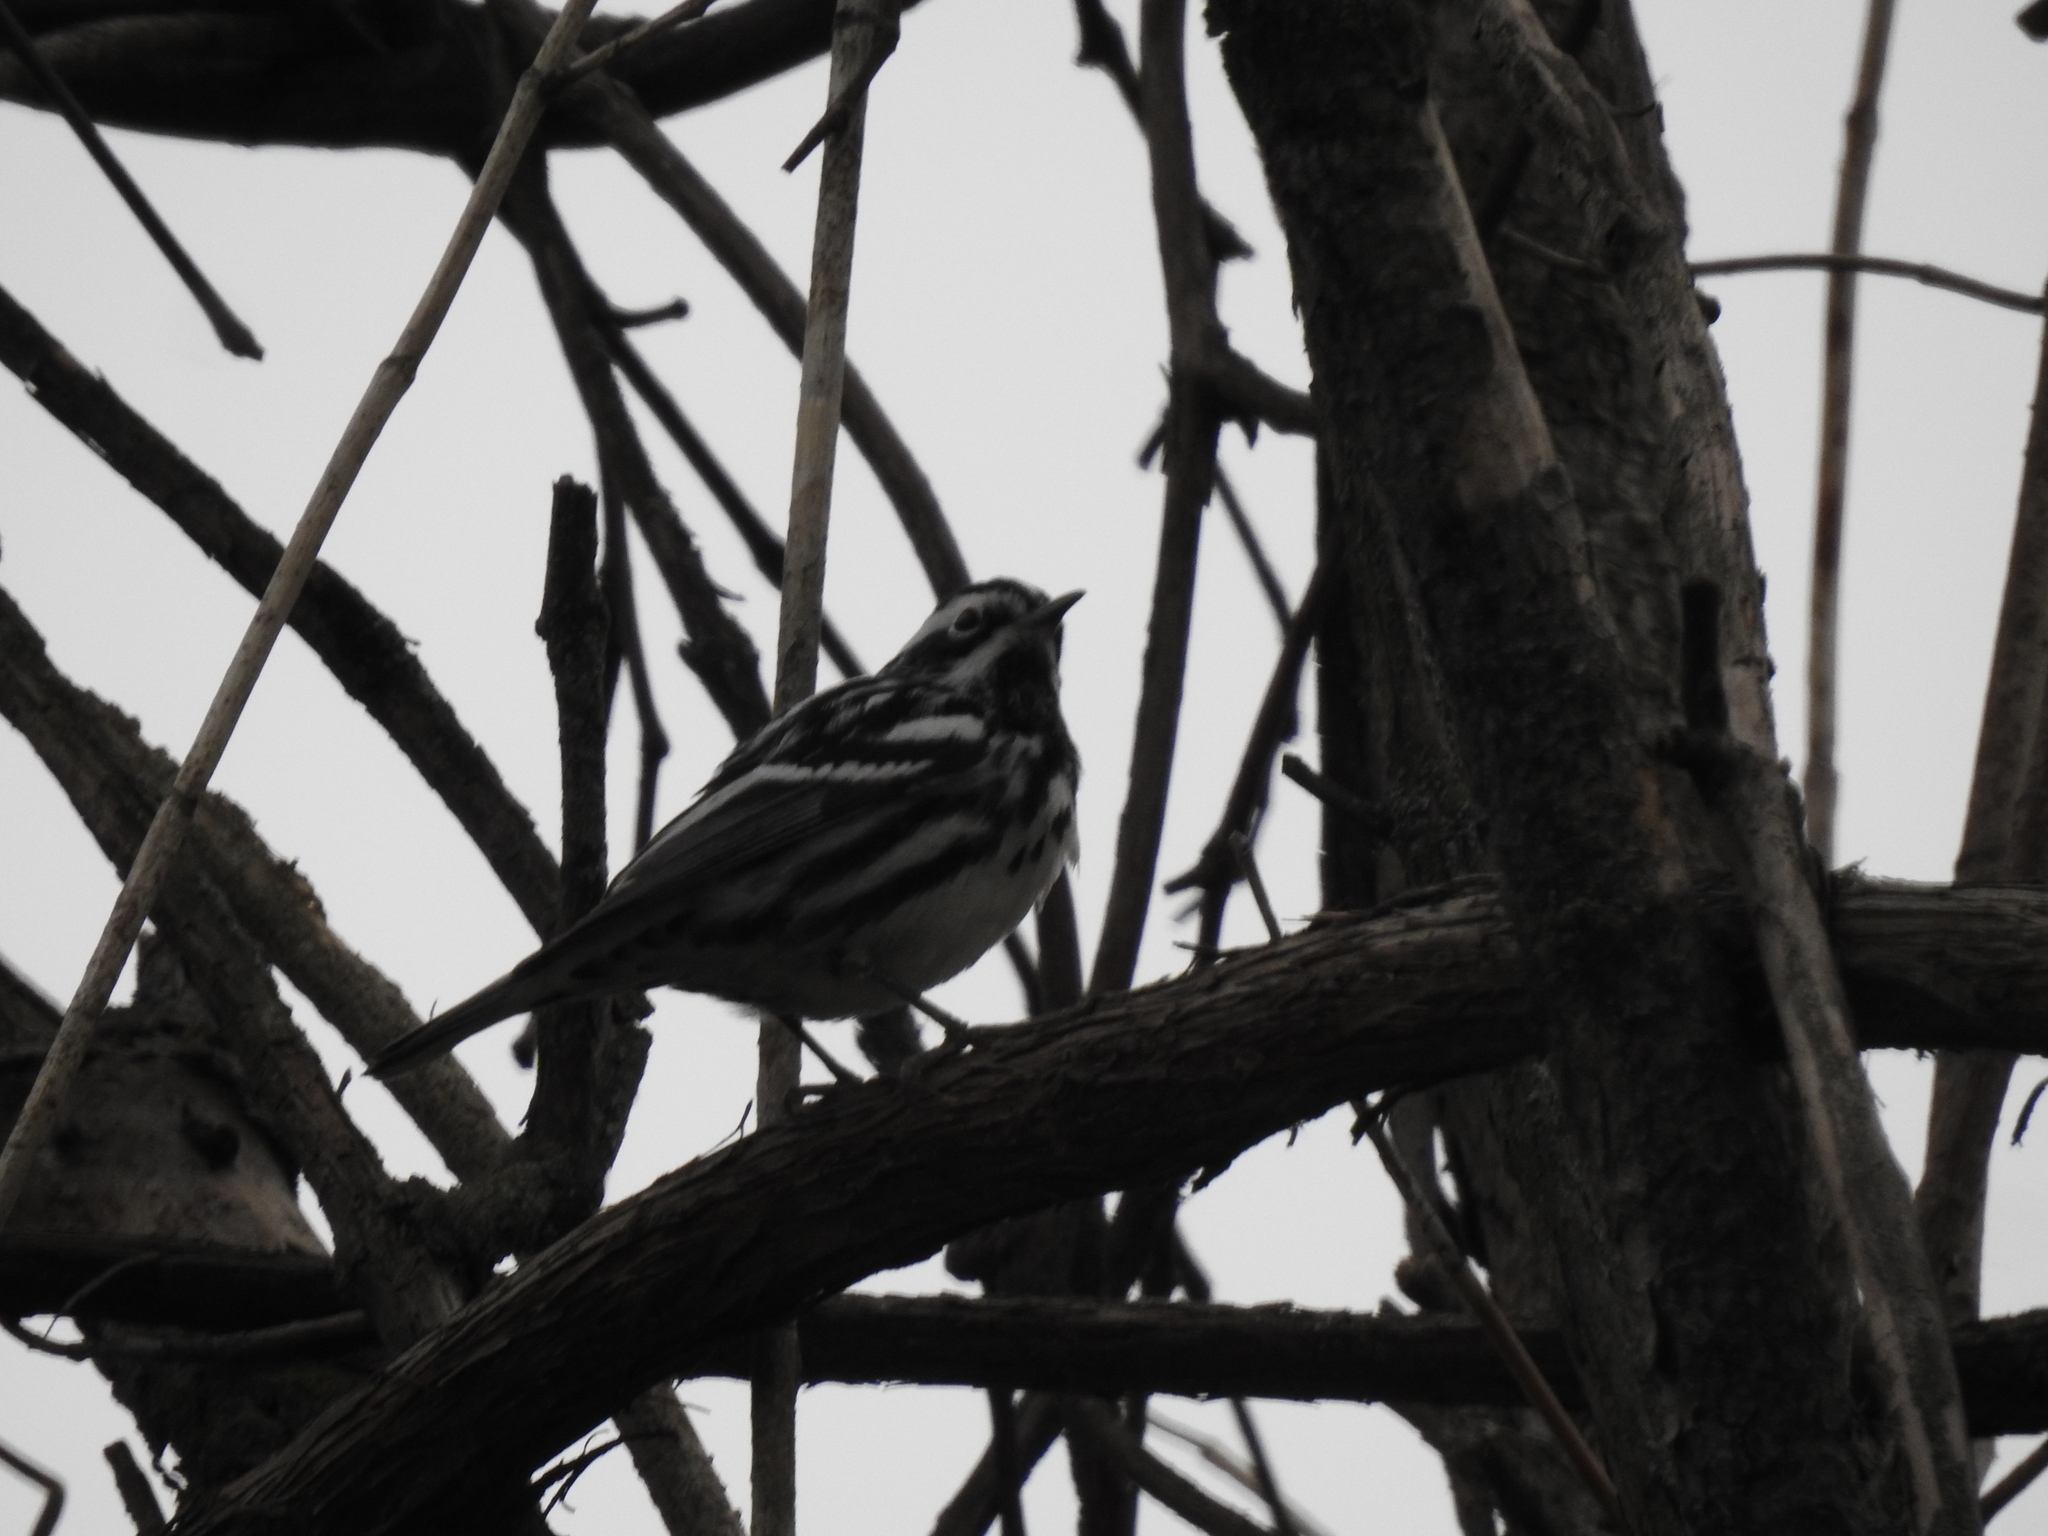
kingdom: Animalia
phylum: Chordata
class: Aves
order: Passeriformes
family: Parulidae
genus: Mniotilta
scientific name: Mniotilta varia
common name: Black-and-white warbler
